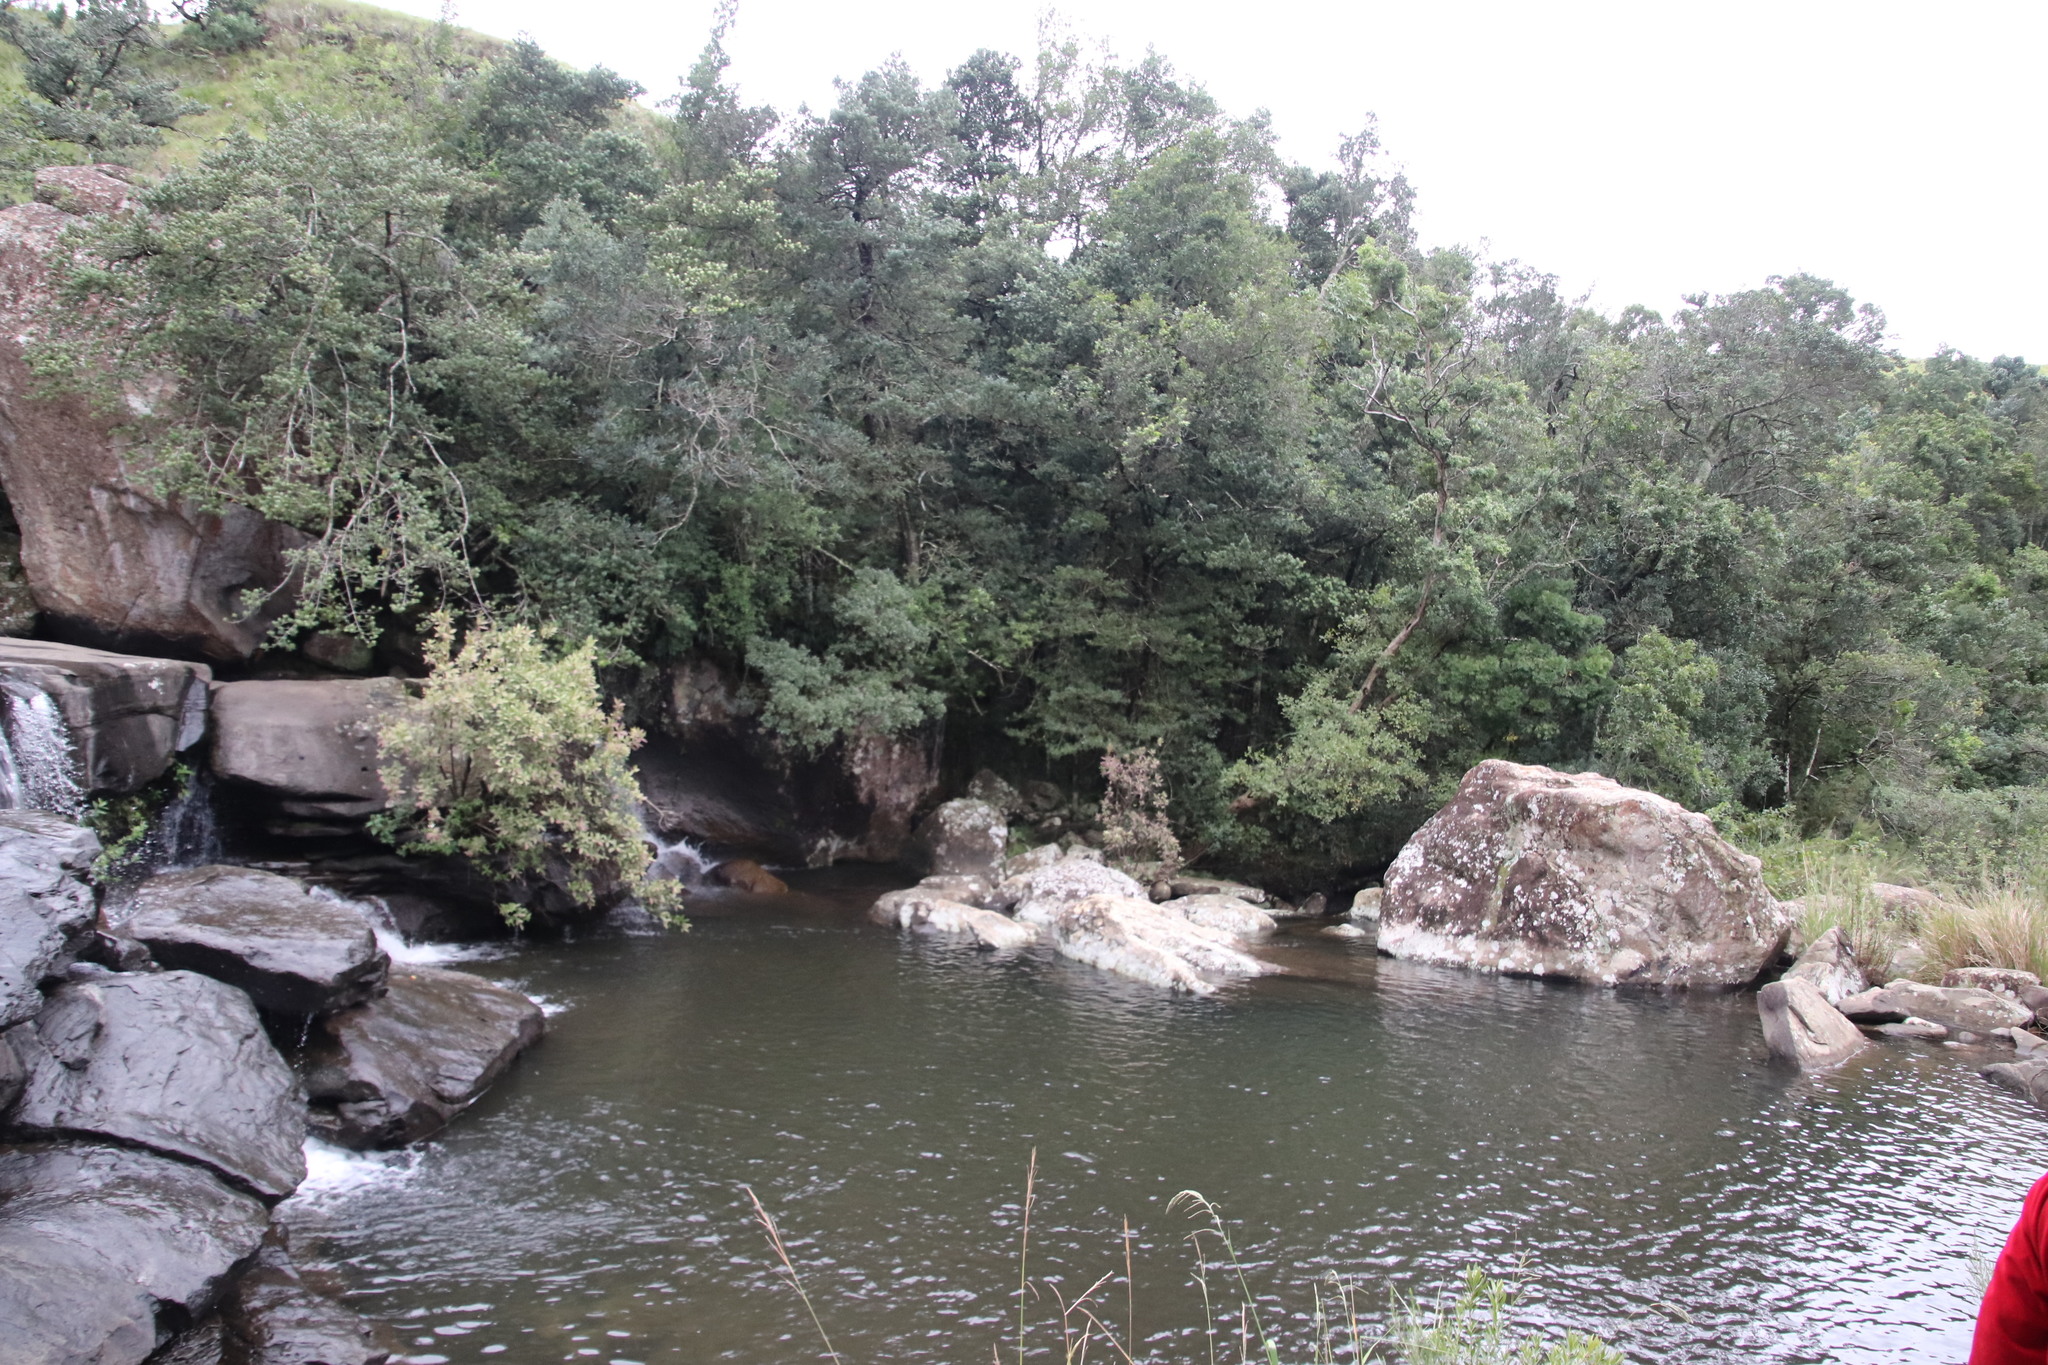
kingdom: Plantae
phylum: Tracheophyta
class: Magnoliopsida
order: Ericales
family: Ebenaceae
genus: Diospyros
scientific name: Diospyros lycioides
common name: Red star apple
